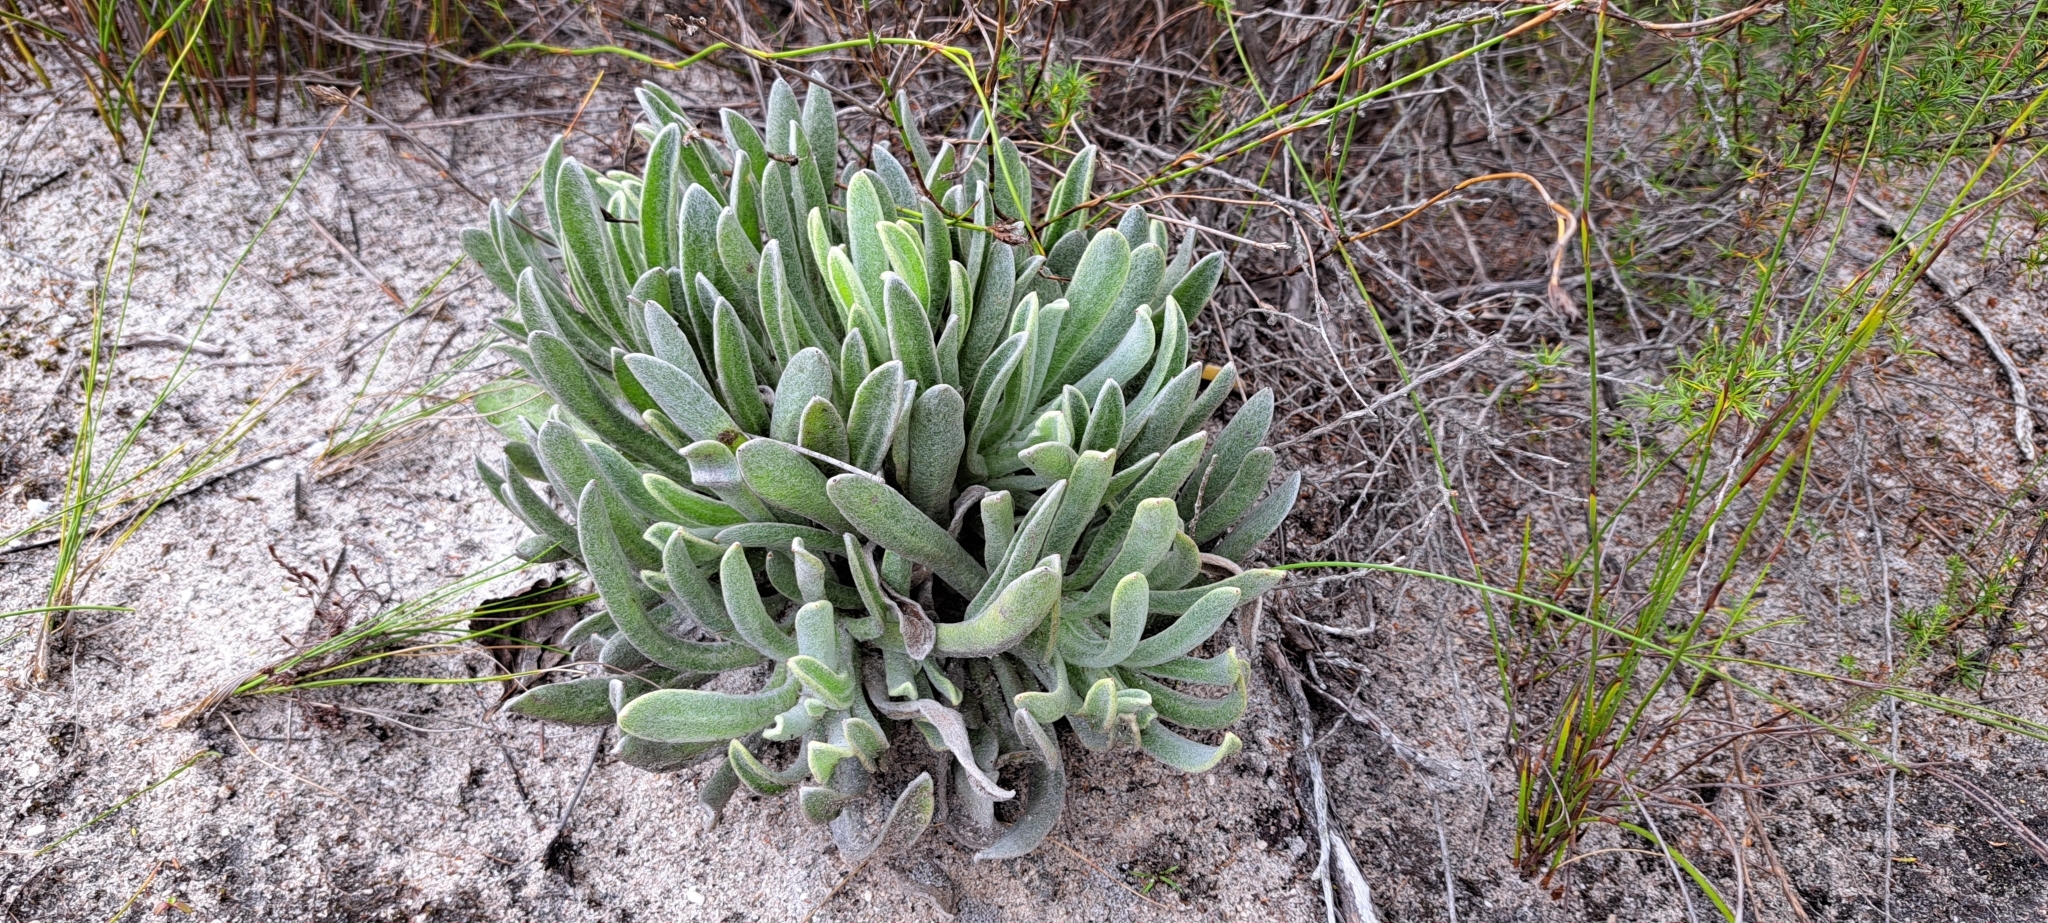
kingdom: Plantae
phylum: Tracheophyta
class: Magnoliopsida
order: Asterales
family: Asteraceae
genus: Syncarpha
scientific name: Syncarpha vestita
